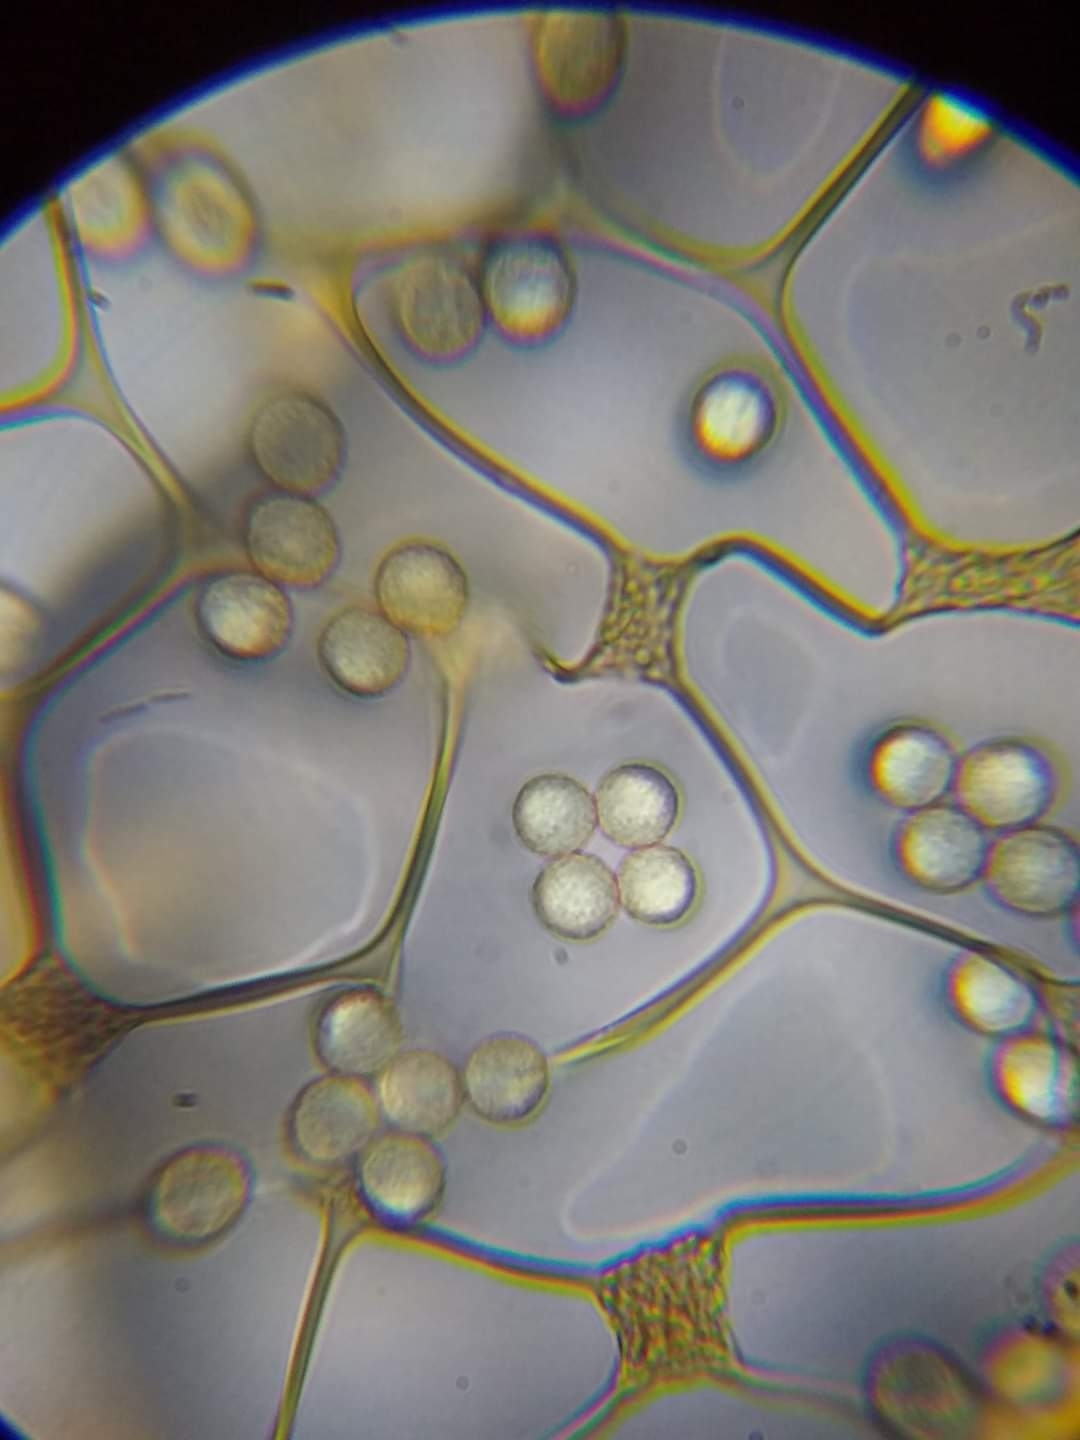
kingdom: Protozoa
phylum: Mycetozoa
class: Myxomycetes
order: Cribrariales
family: Cribrariaceae
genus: Cribraria
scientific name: Cribraria confusa
